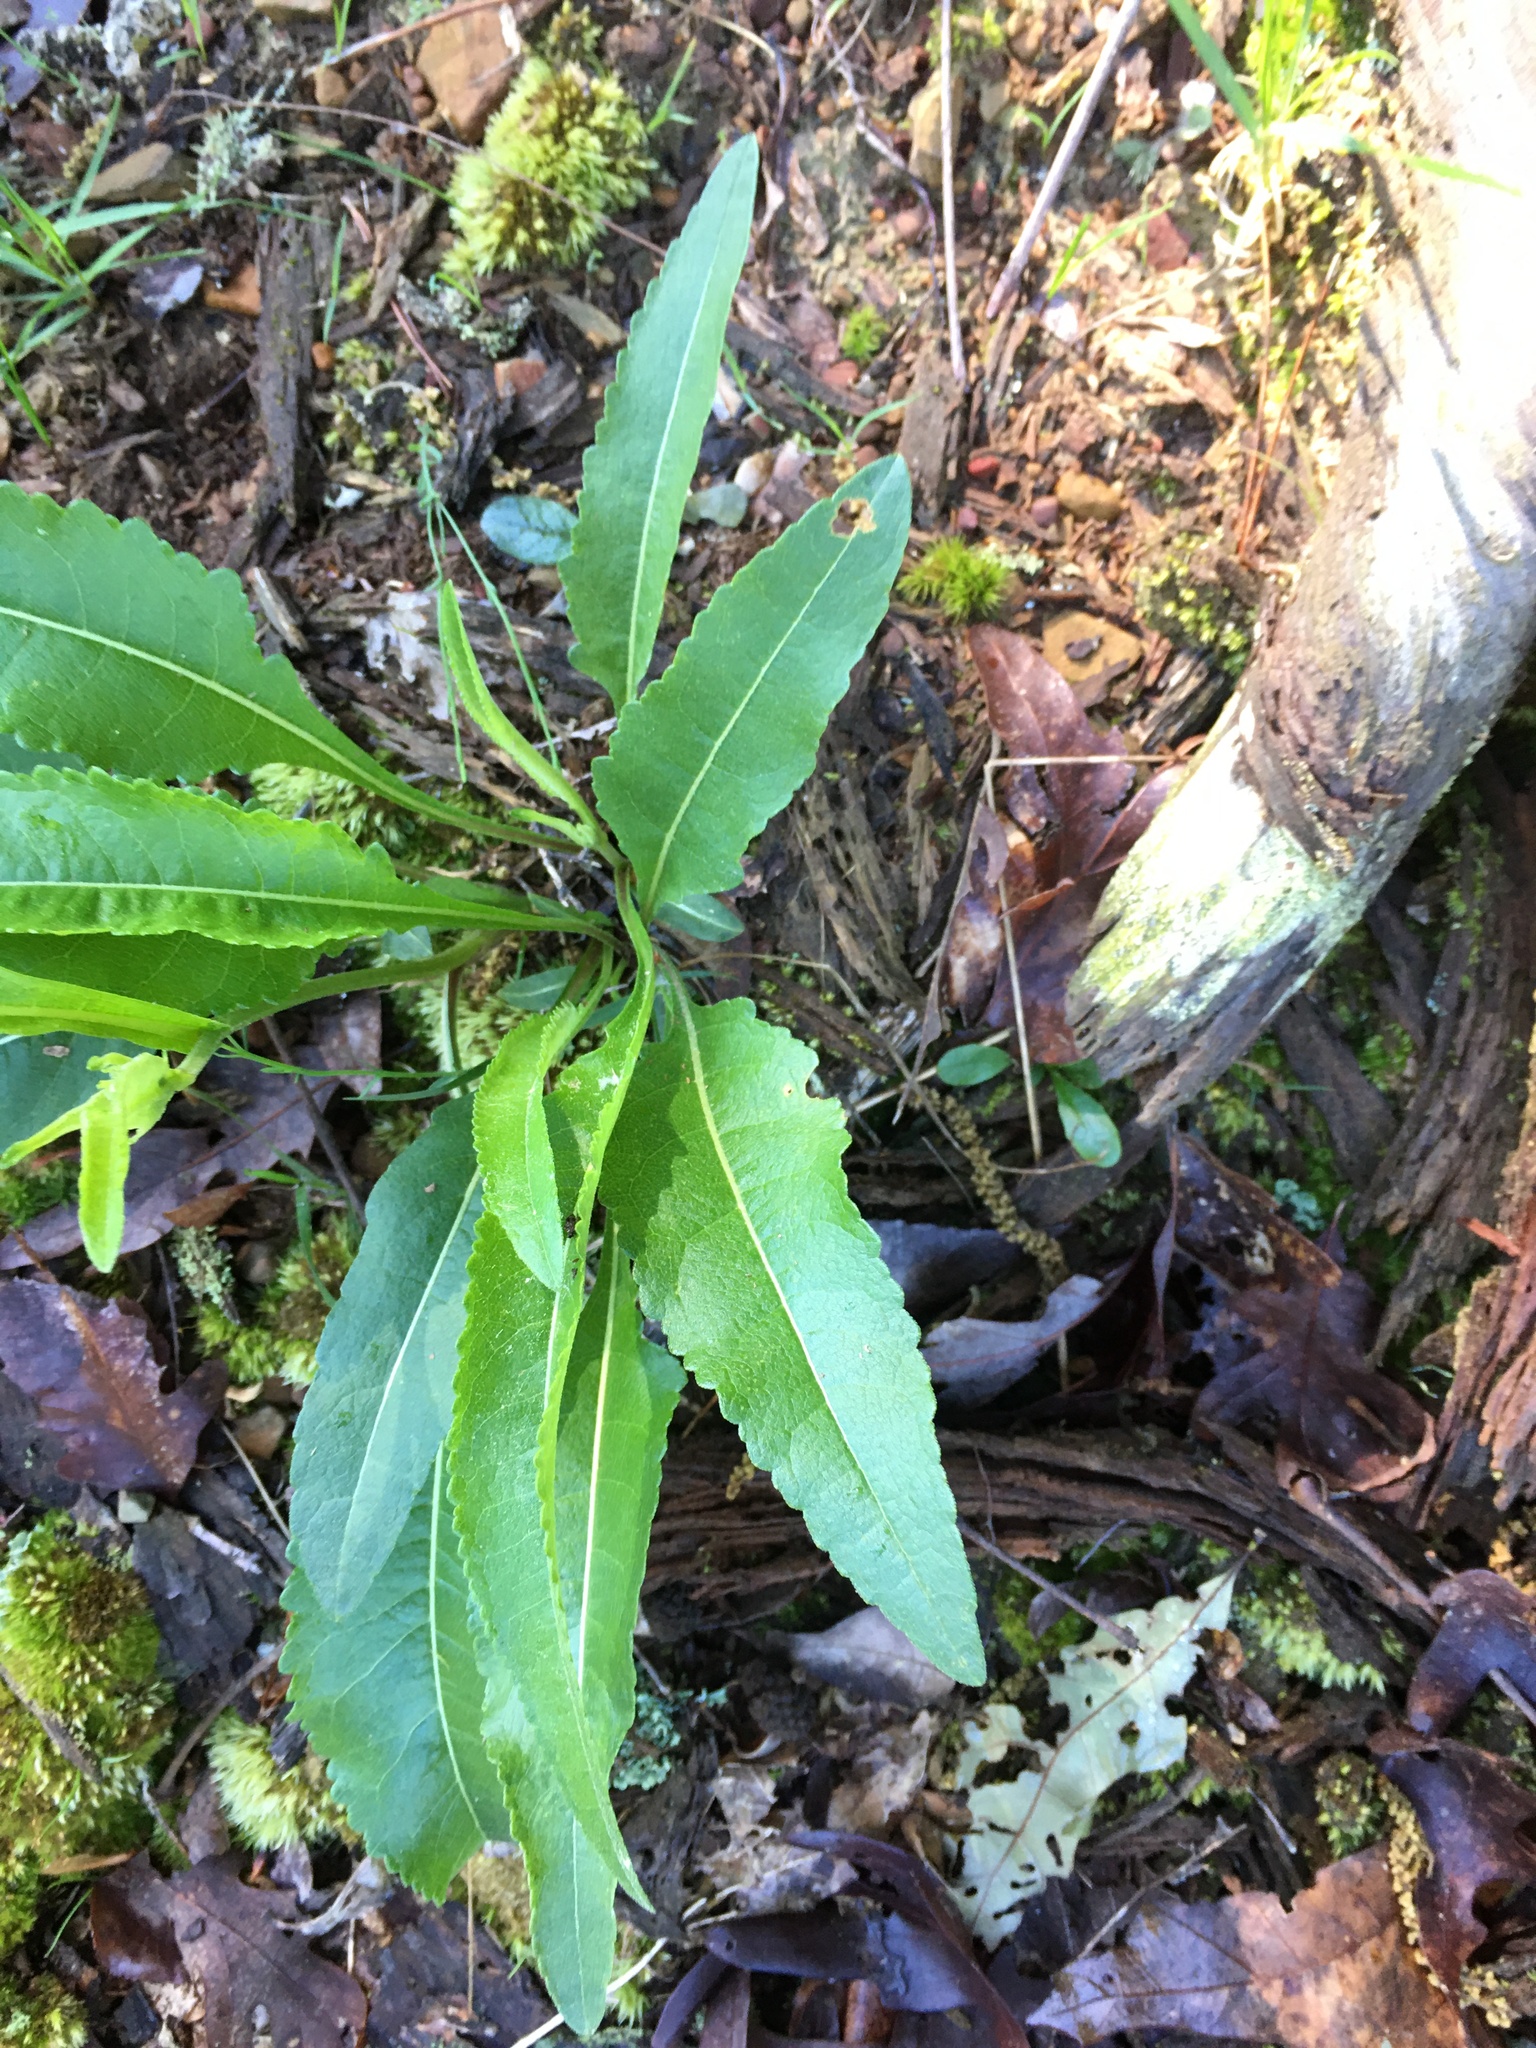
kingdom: Plantae
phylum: Tracheophyta
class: Magnoliopsida
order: Asterales
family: Asteraceae
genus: Parthenium
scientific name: Parthenium integrifolium
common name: American feverfew
